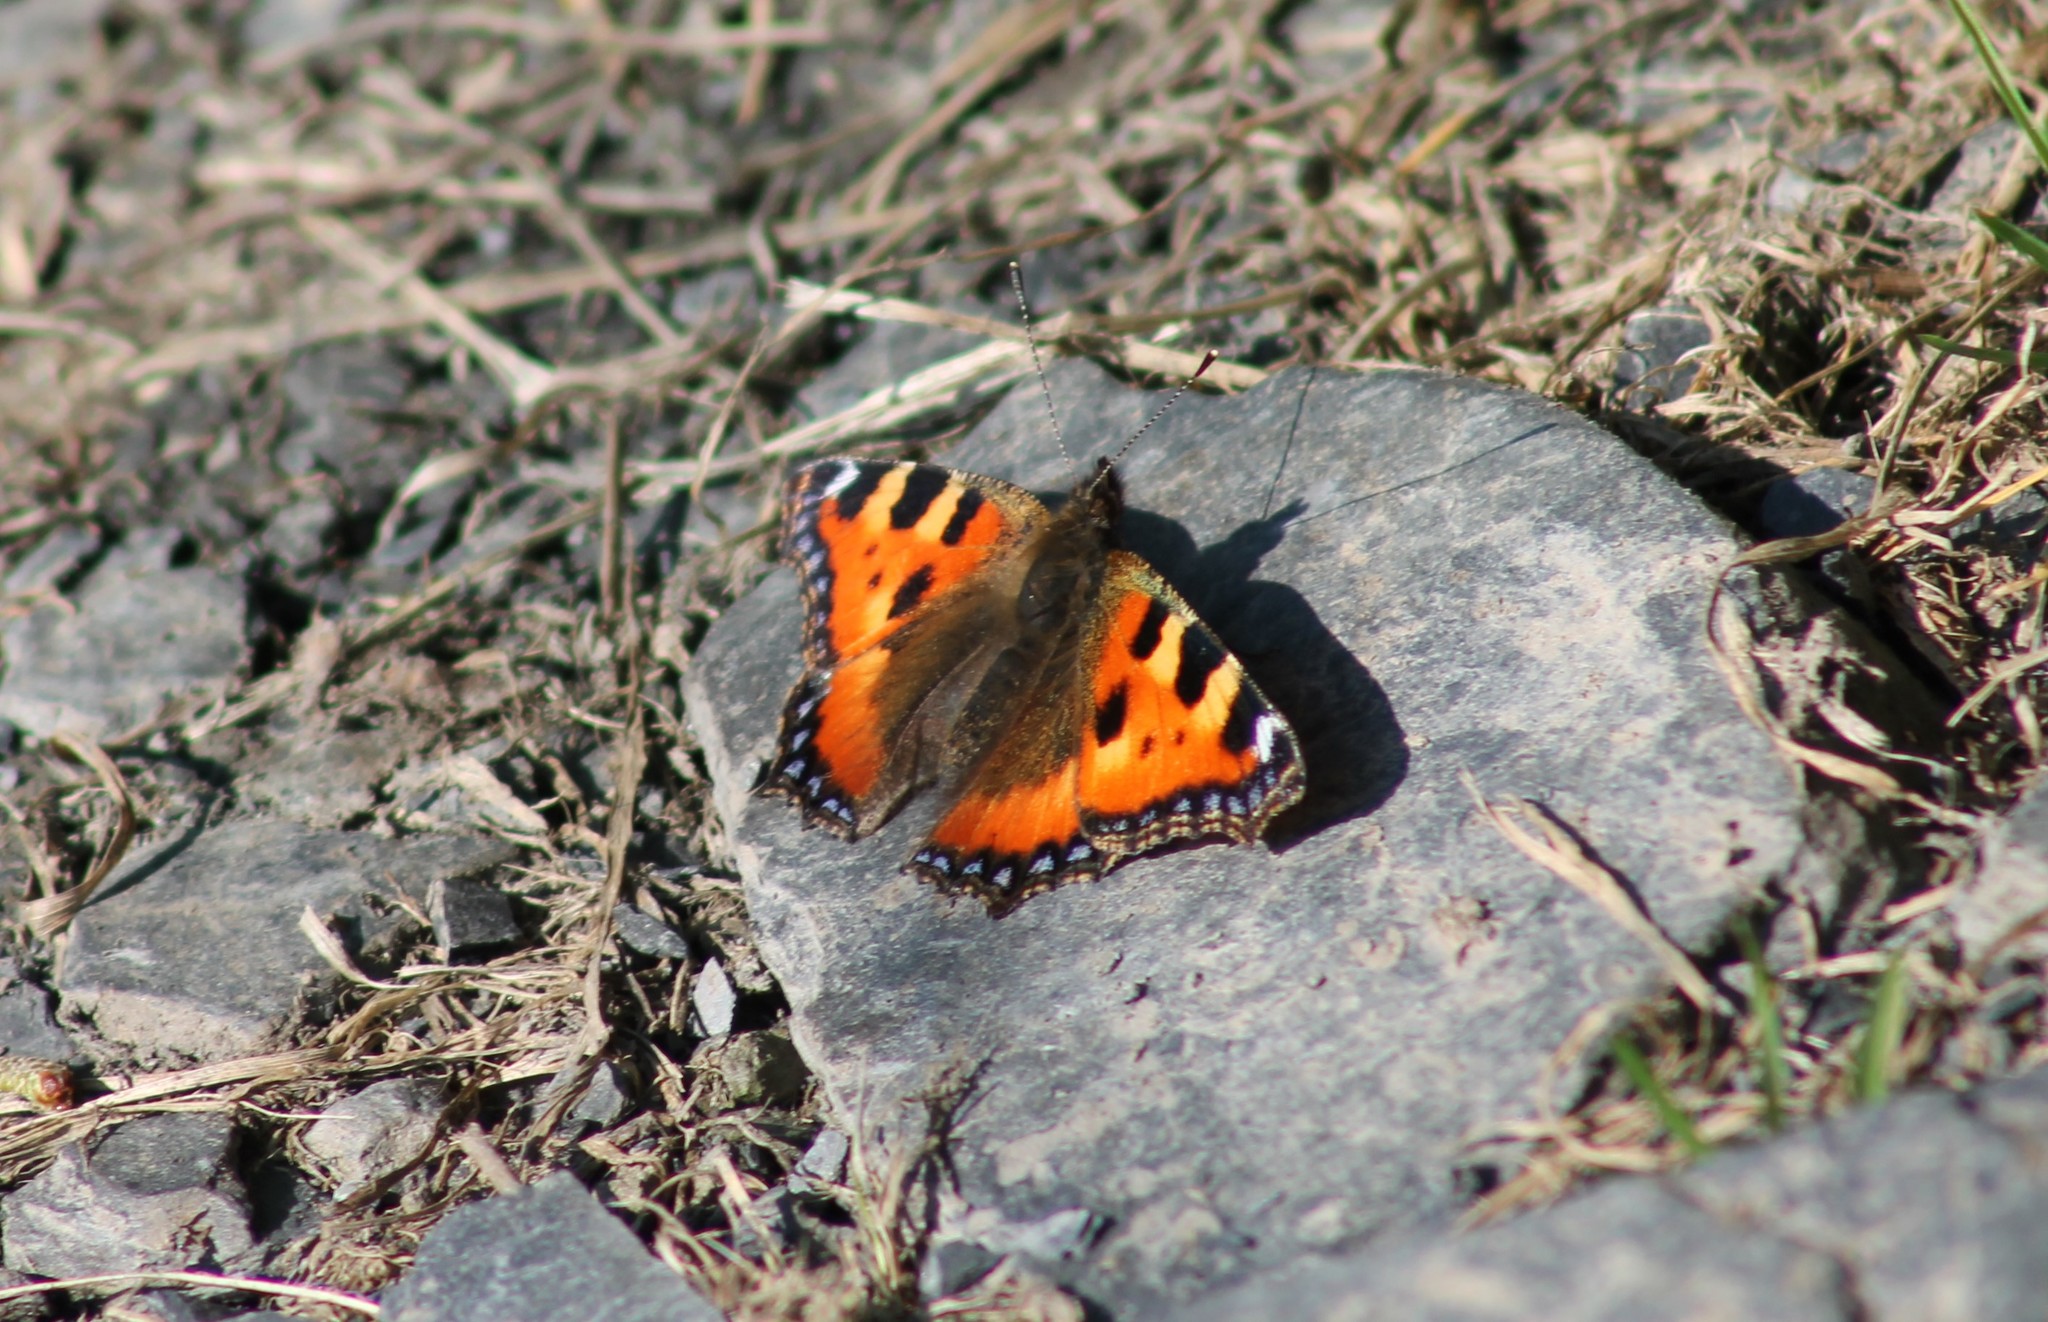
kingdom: Animalia
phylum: Arthropoda
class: Insecta
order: Lepidoptera
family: Nymphalidae
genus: Aglais
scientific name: Aglais urticae
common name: Small tortoiseshell
